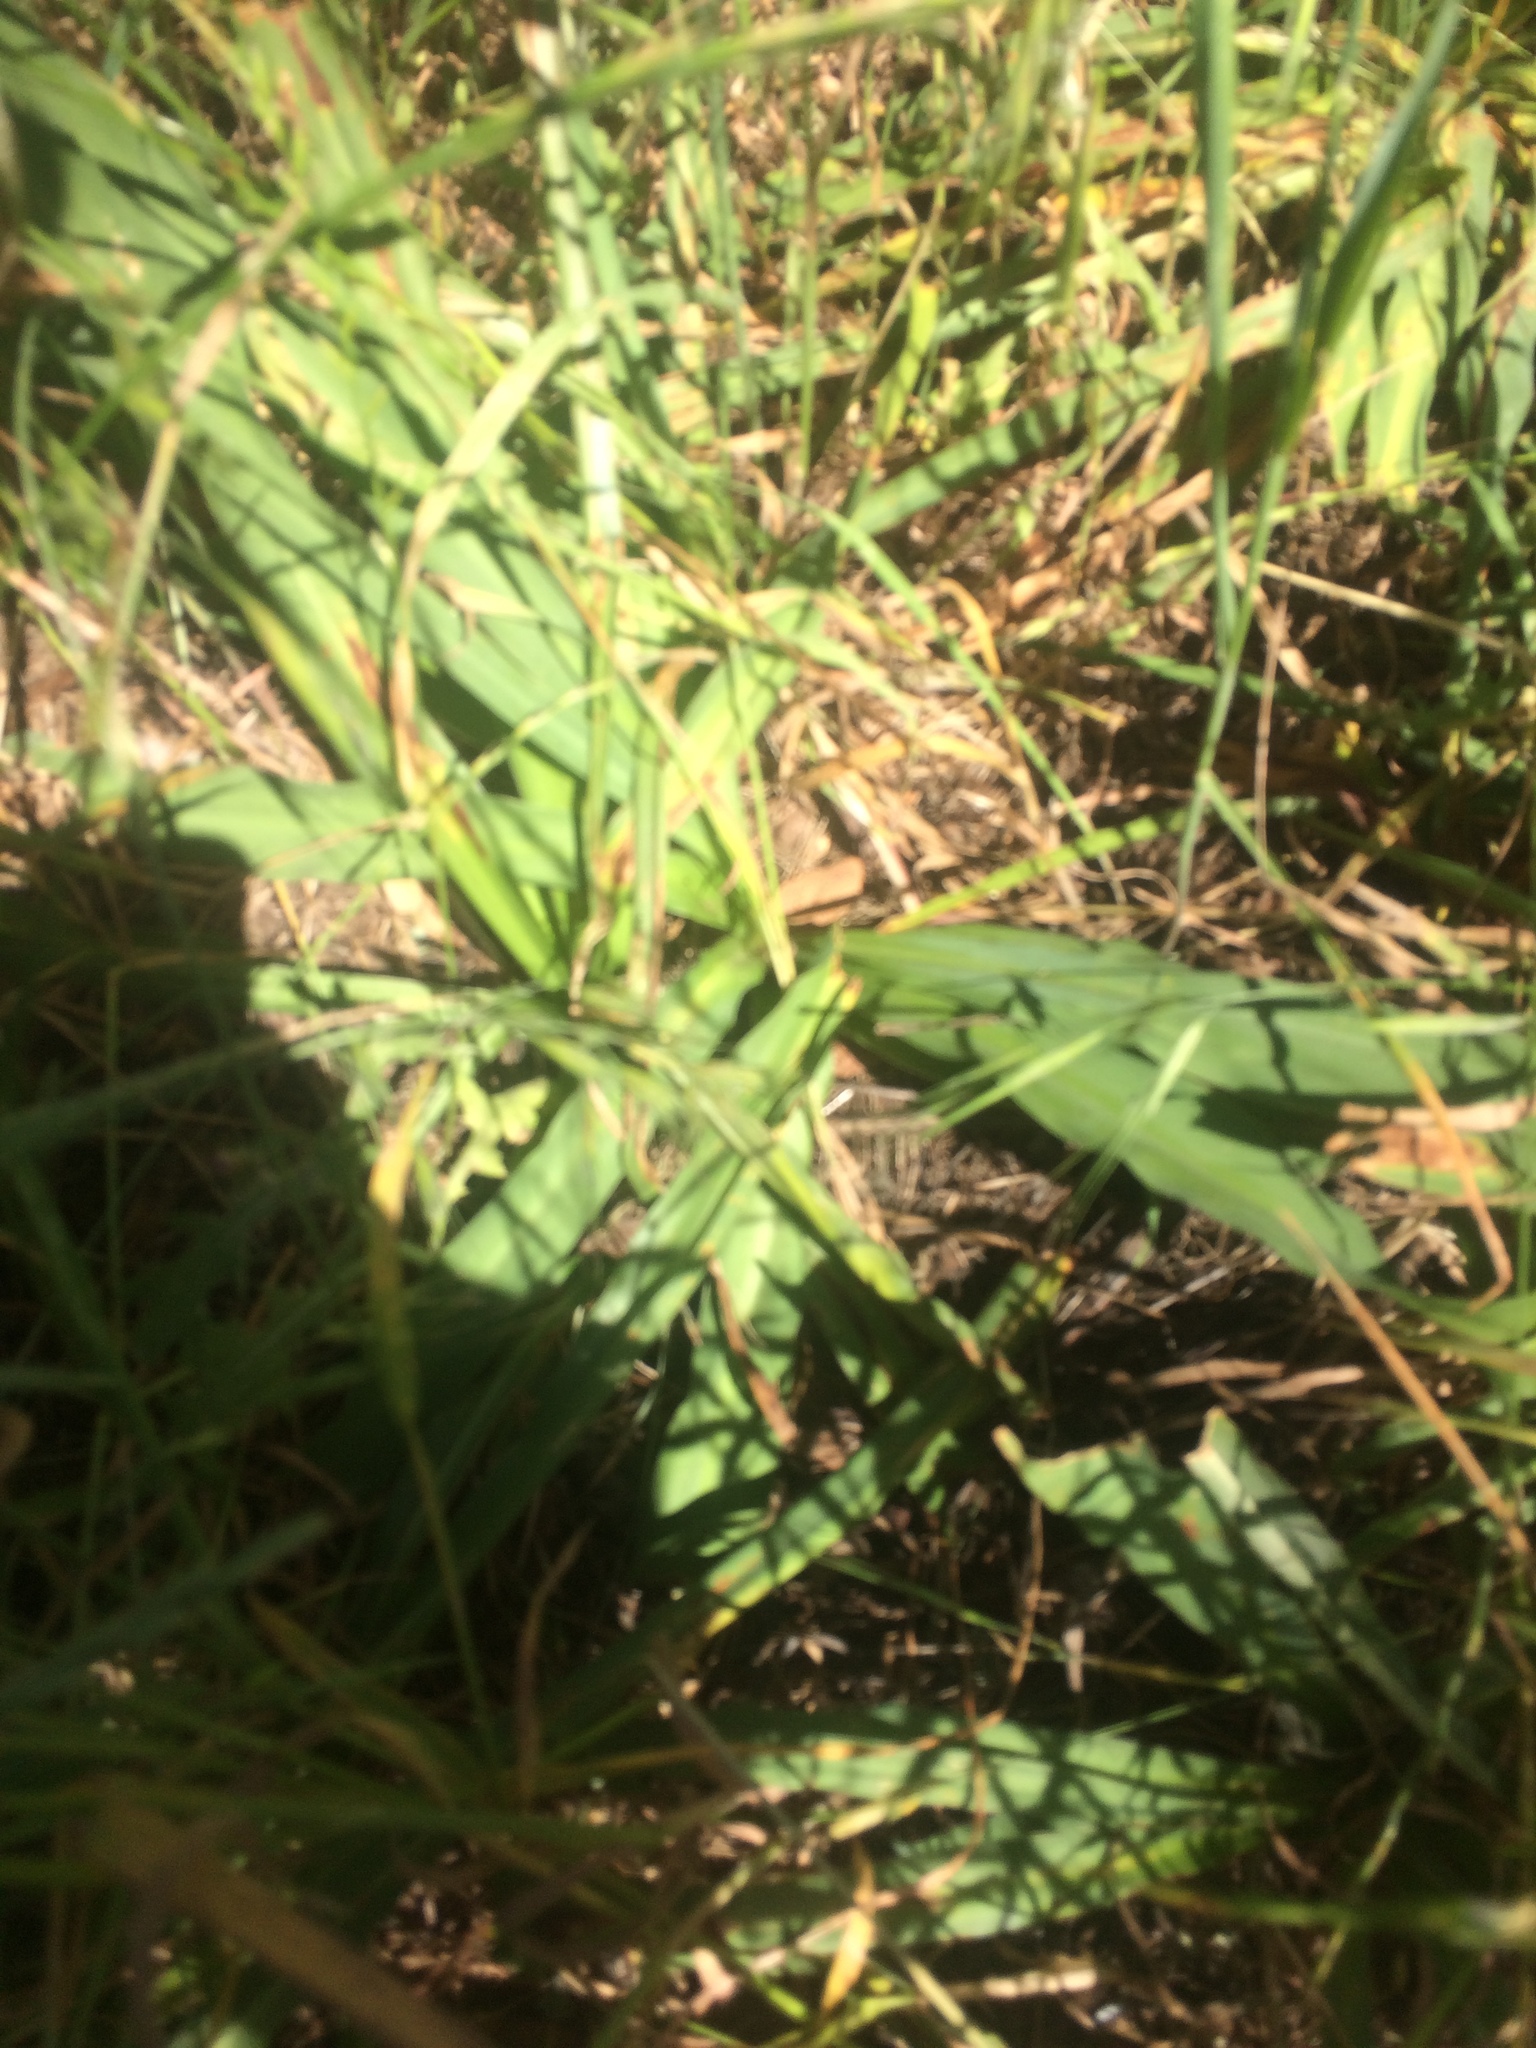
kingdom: Plantae
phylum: Tracheophyta
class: Liliopsida
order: Asparagales
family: Asparagaceae
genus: Chlorogalum
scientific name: Chlorogalum pomeridianum
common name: Amole
